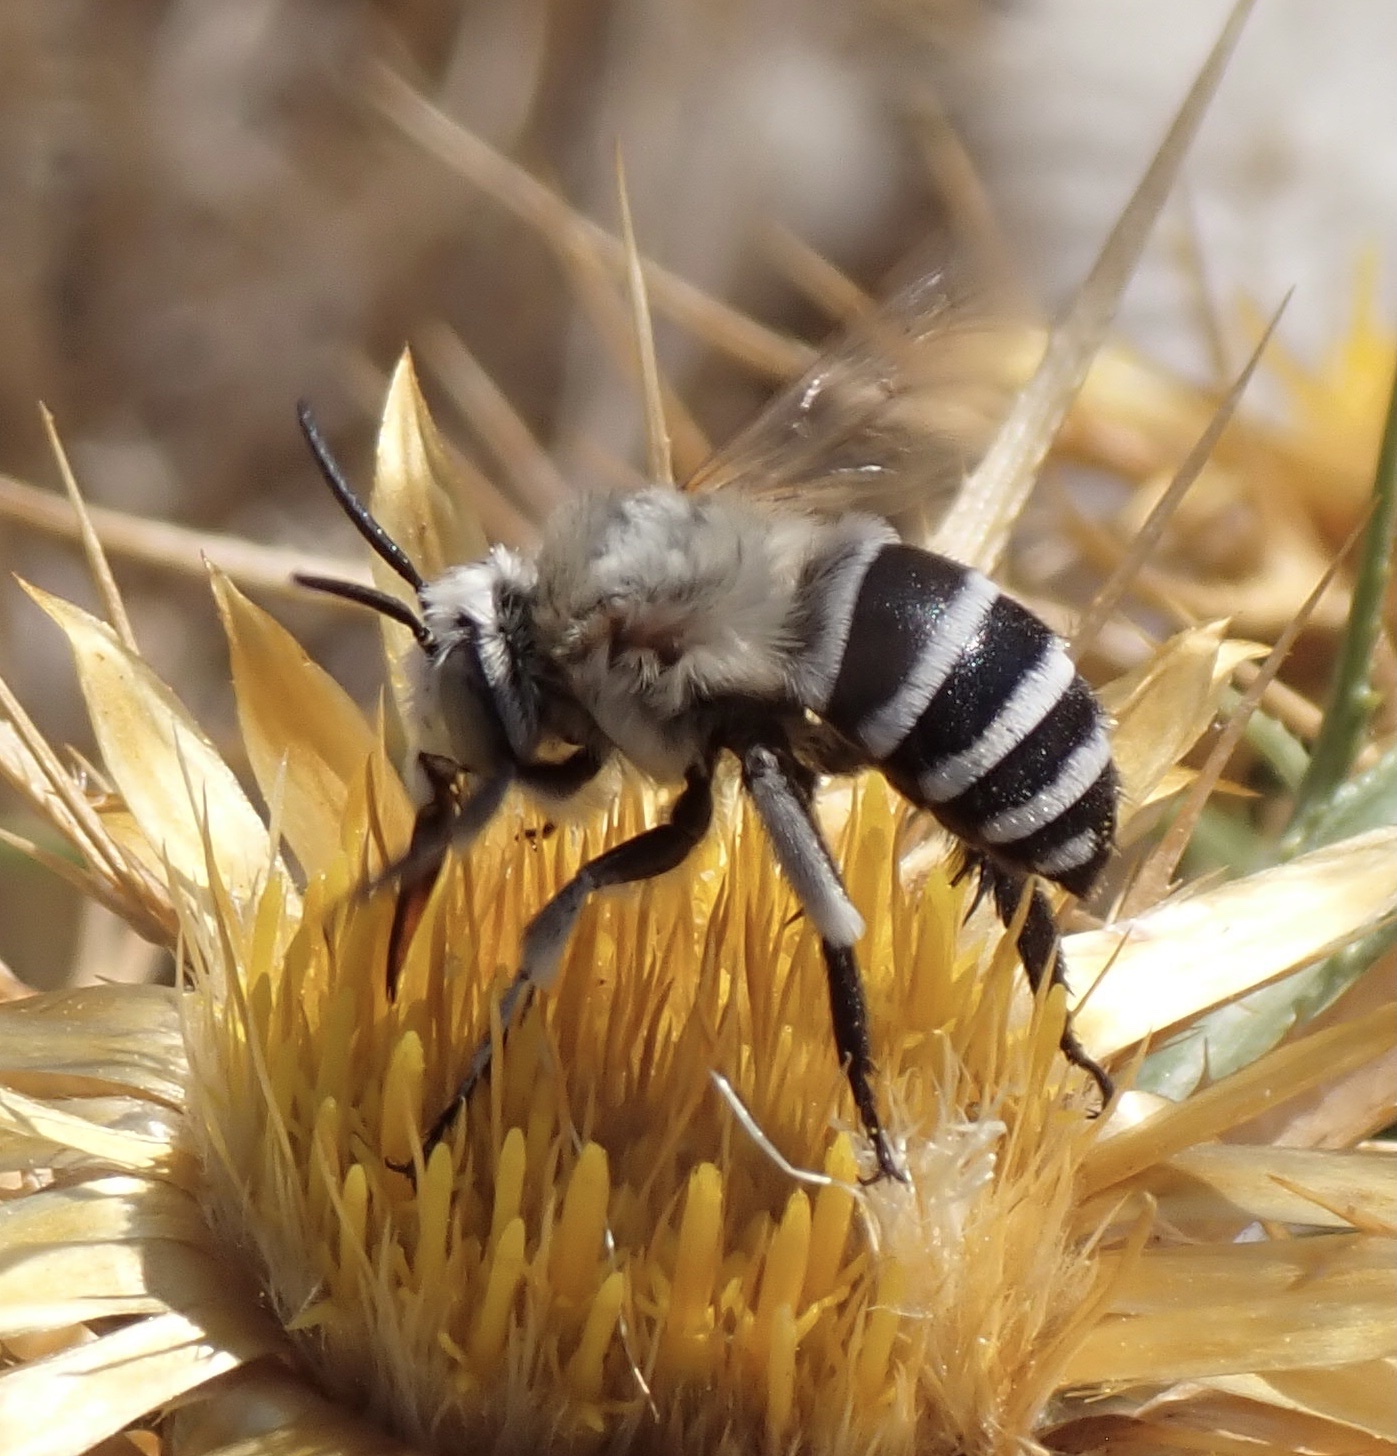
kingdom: Animalia
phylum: Arthropoda
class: Insecta
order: Hymenoptera
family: Apidae
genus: Amegilla
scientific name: Amegilla quadrifasciata
